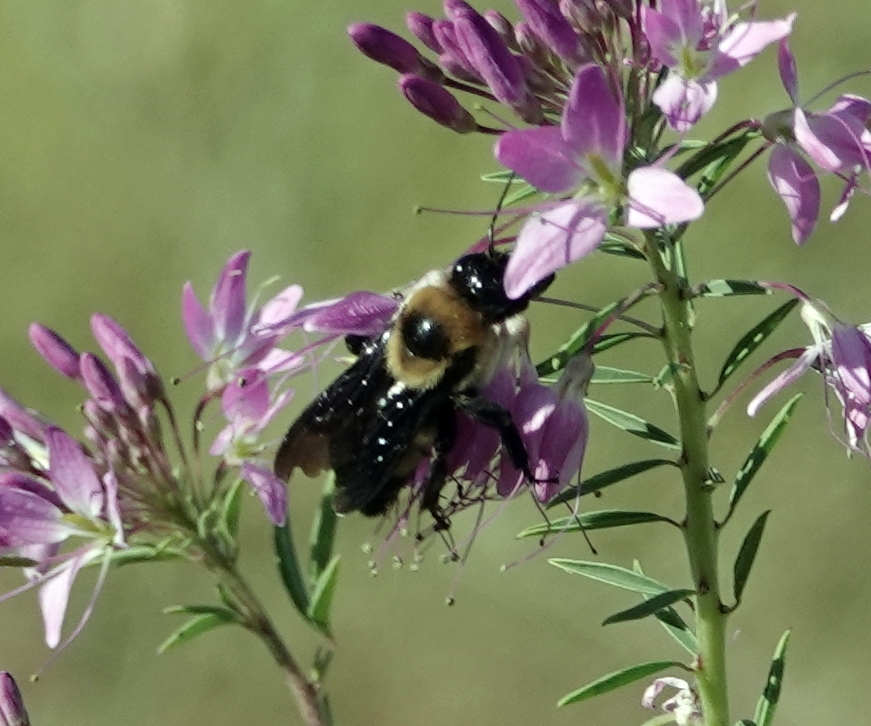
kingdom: Animalia
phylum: Arthropoda
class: Insecta
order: Hymenoptera
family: Apidae
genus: Bombus
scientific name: Bombus fraternus
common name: Southern plains bumble bee
